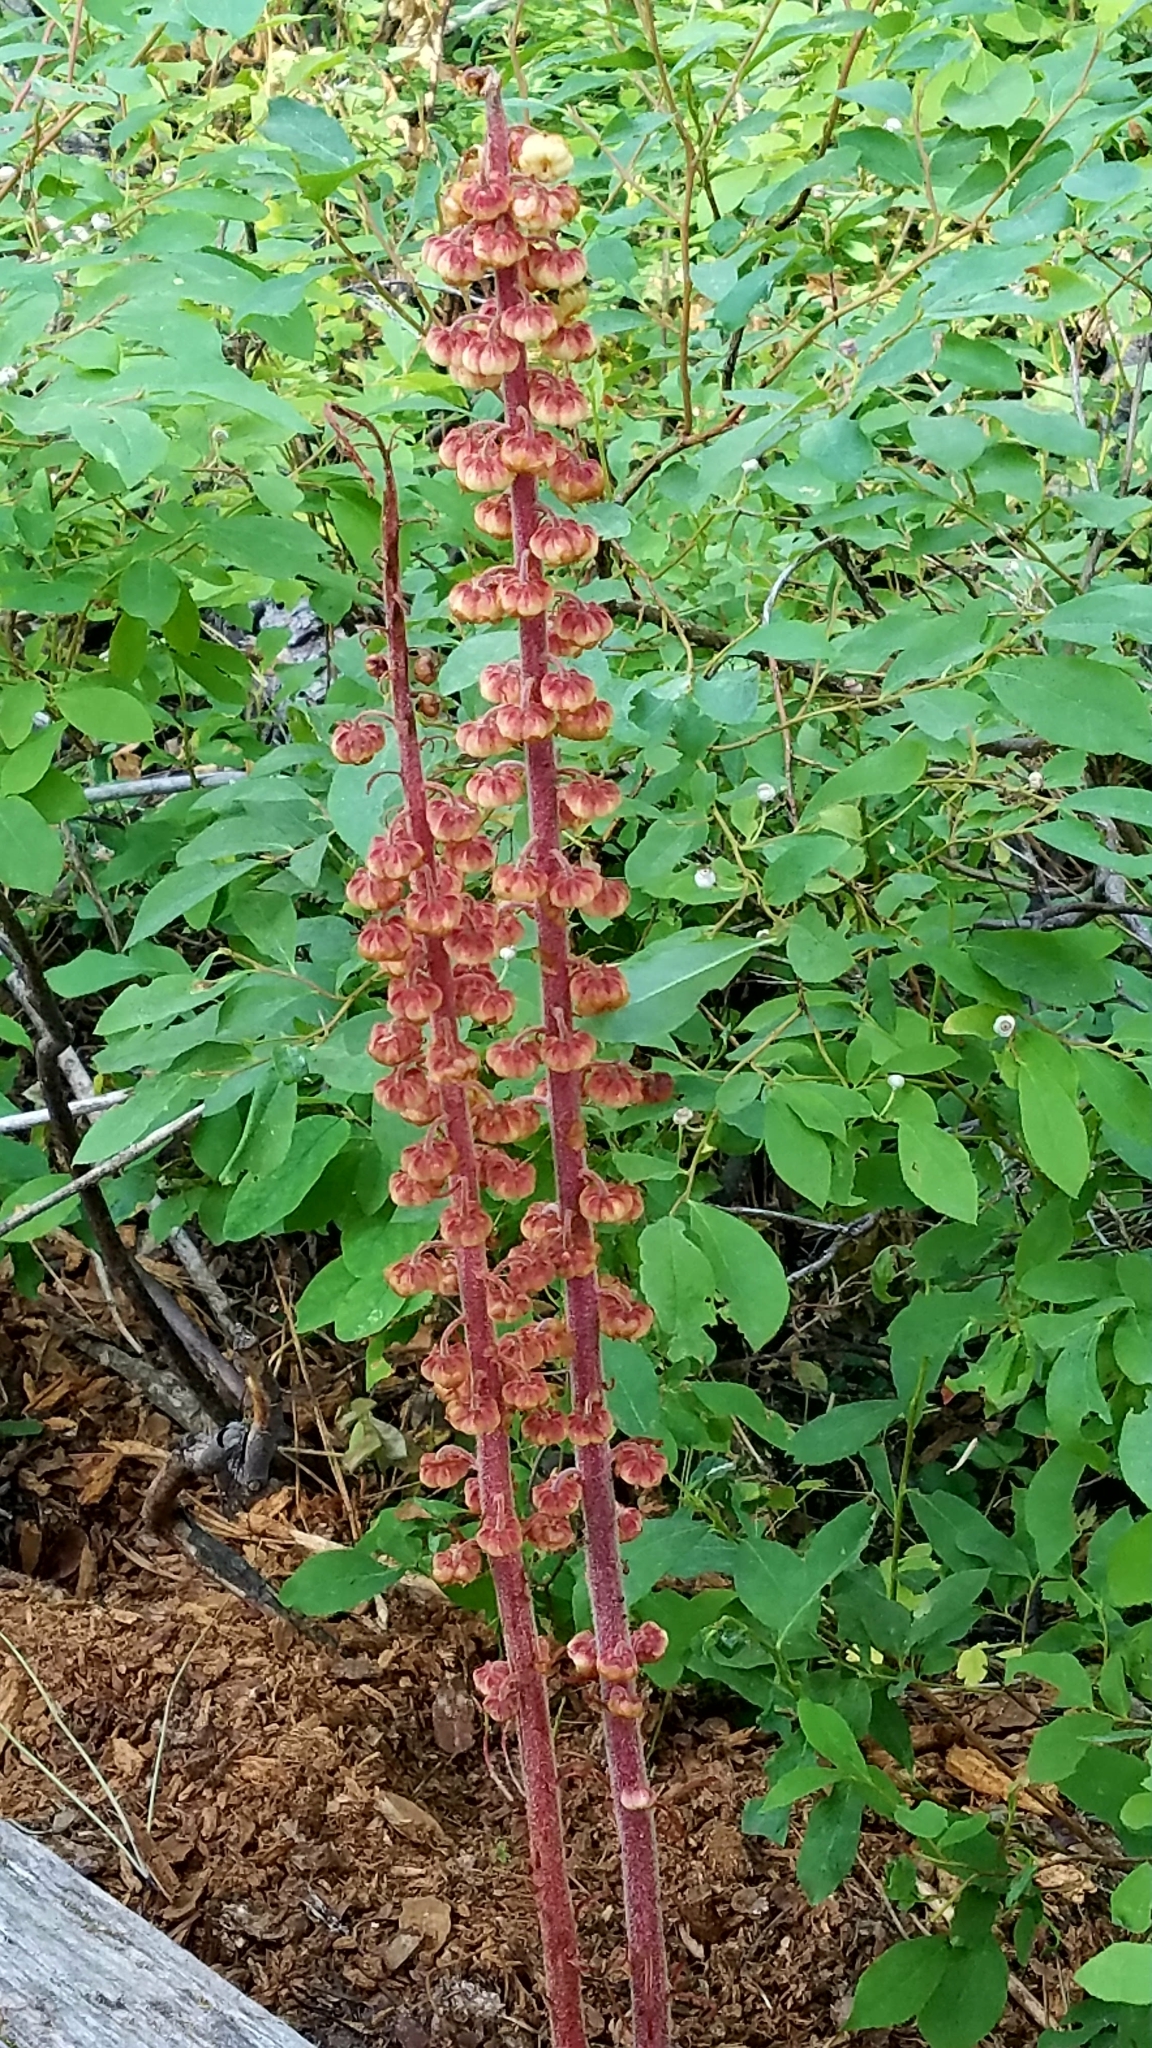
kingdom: Plantae
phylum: Tracheophyta
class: Magnoliopsida
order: Ericales
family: Ericaceae
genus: Pterospora
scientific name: Pterospora andromedea
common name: Giant bird's-nest
